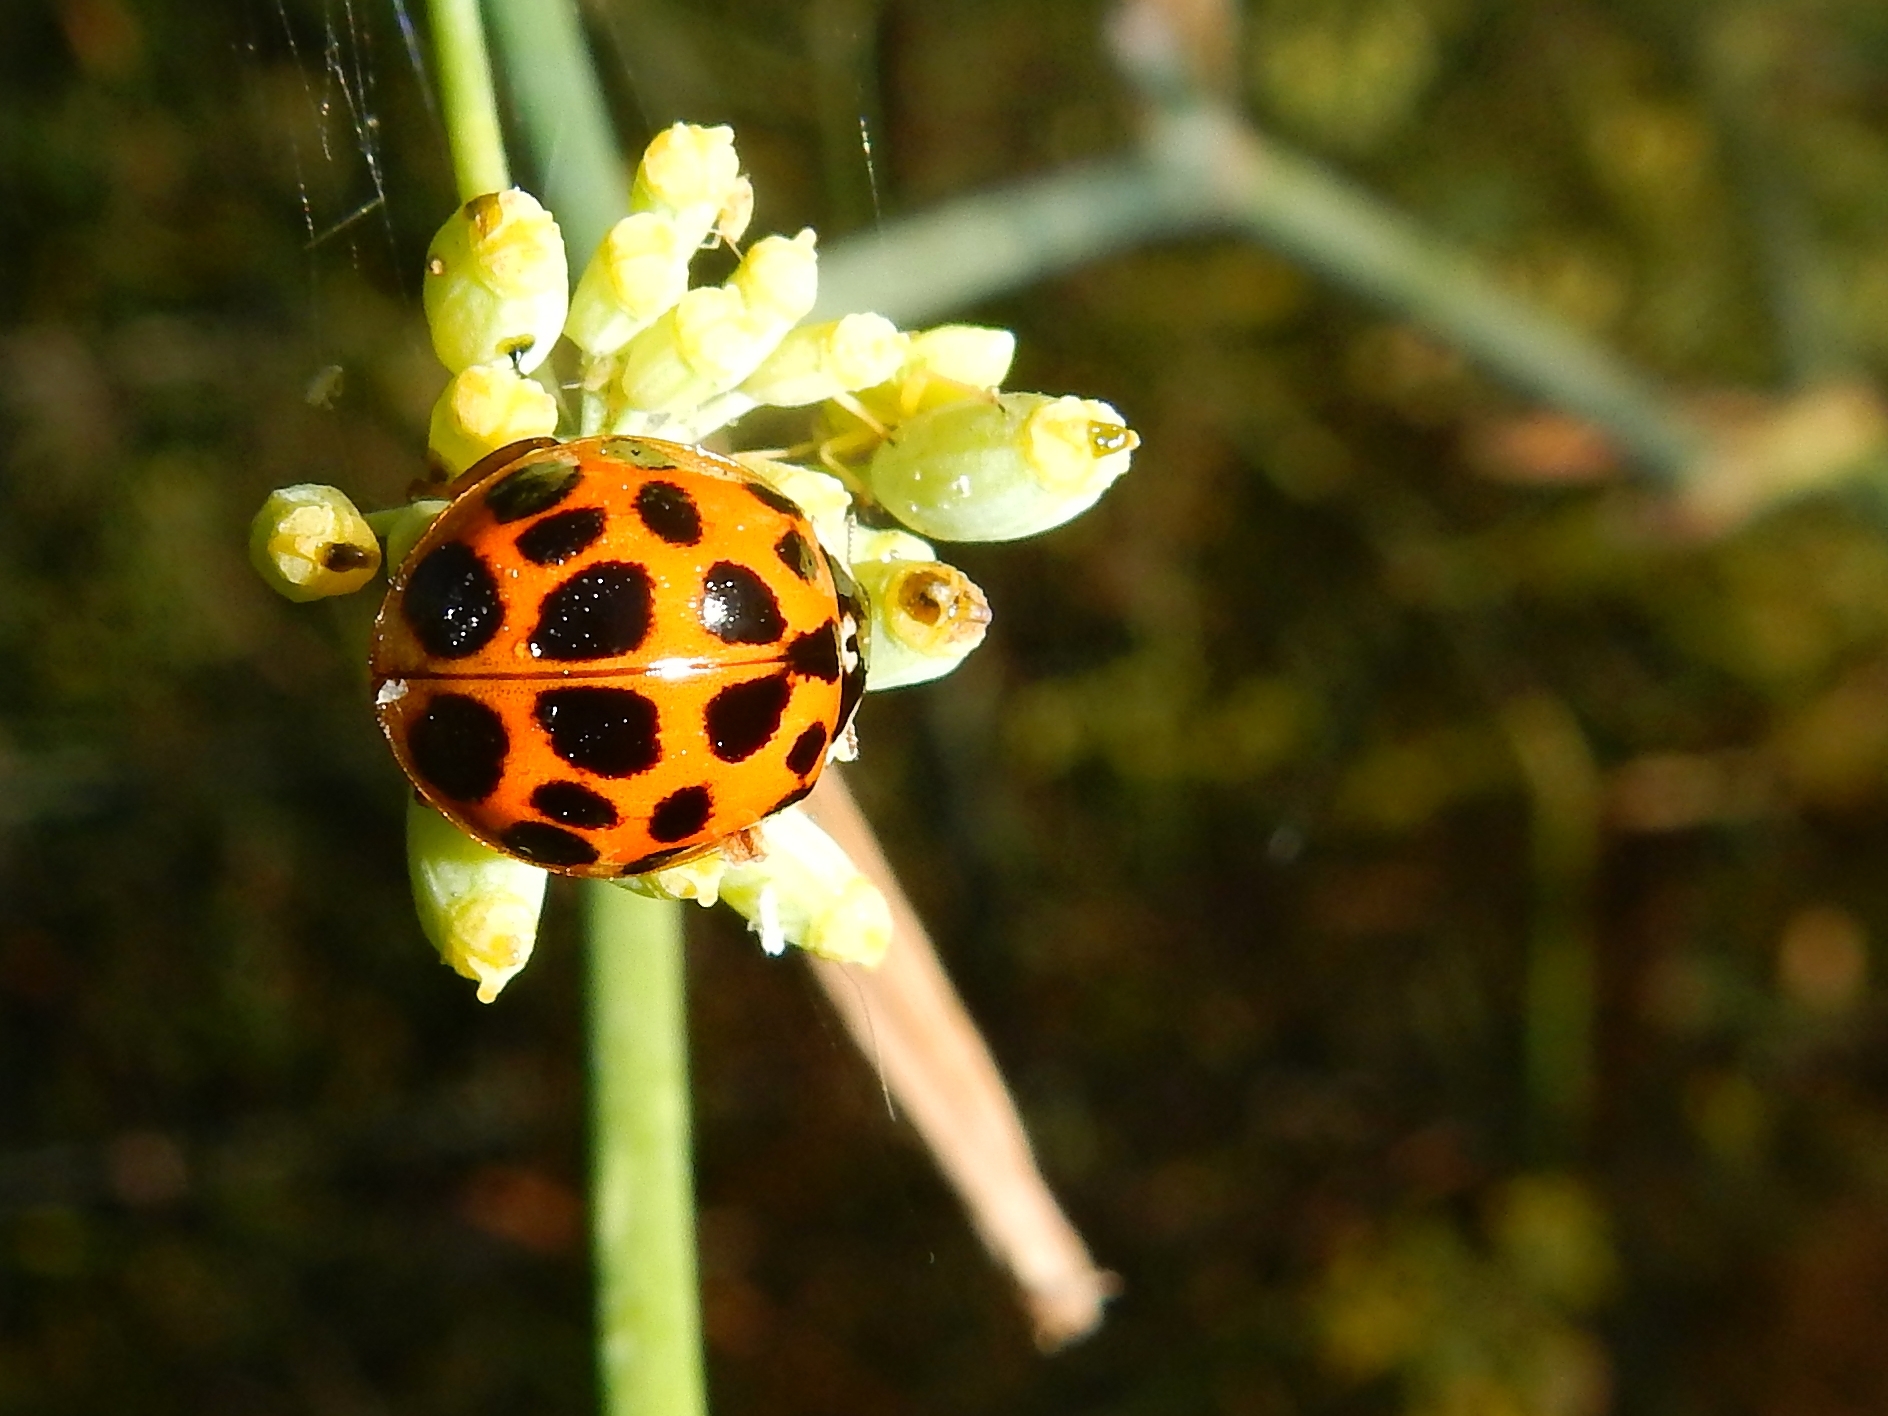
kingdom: Animalia
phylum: Arthropoda
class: Insecta
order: Coleoptera
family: Coccinellidae
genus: Harmonia
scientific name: Harmonia axyridis
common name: Harlequin ladybird
